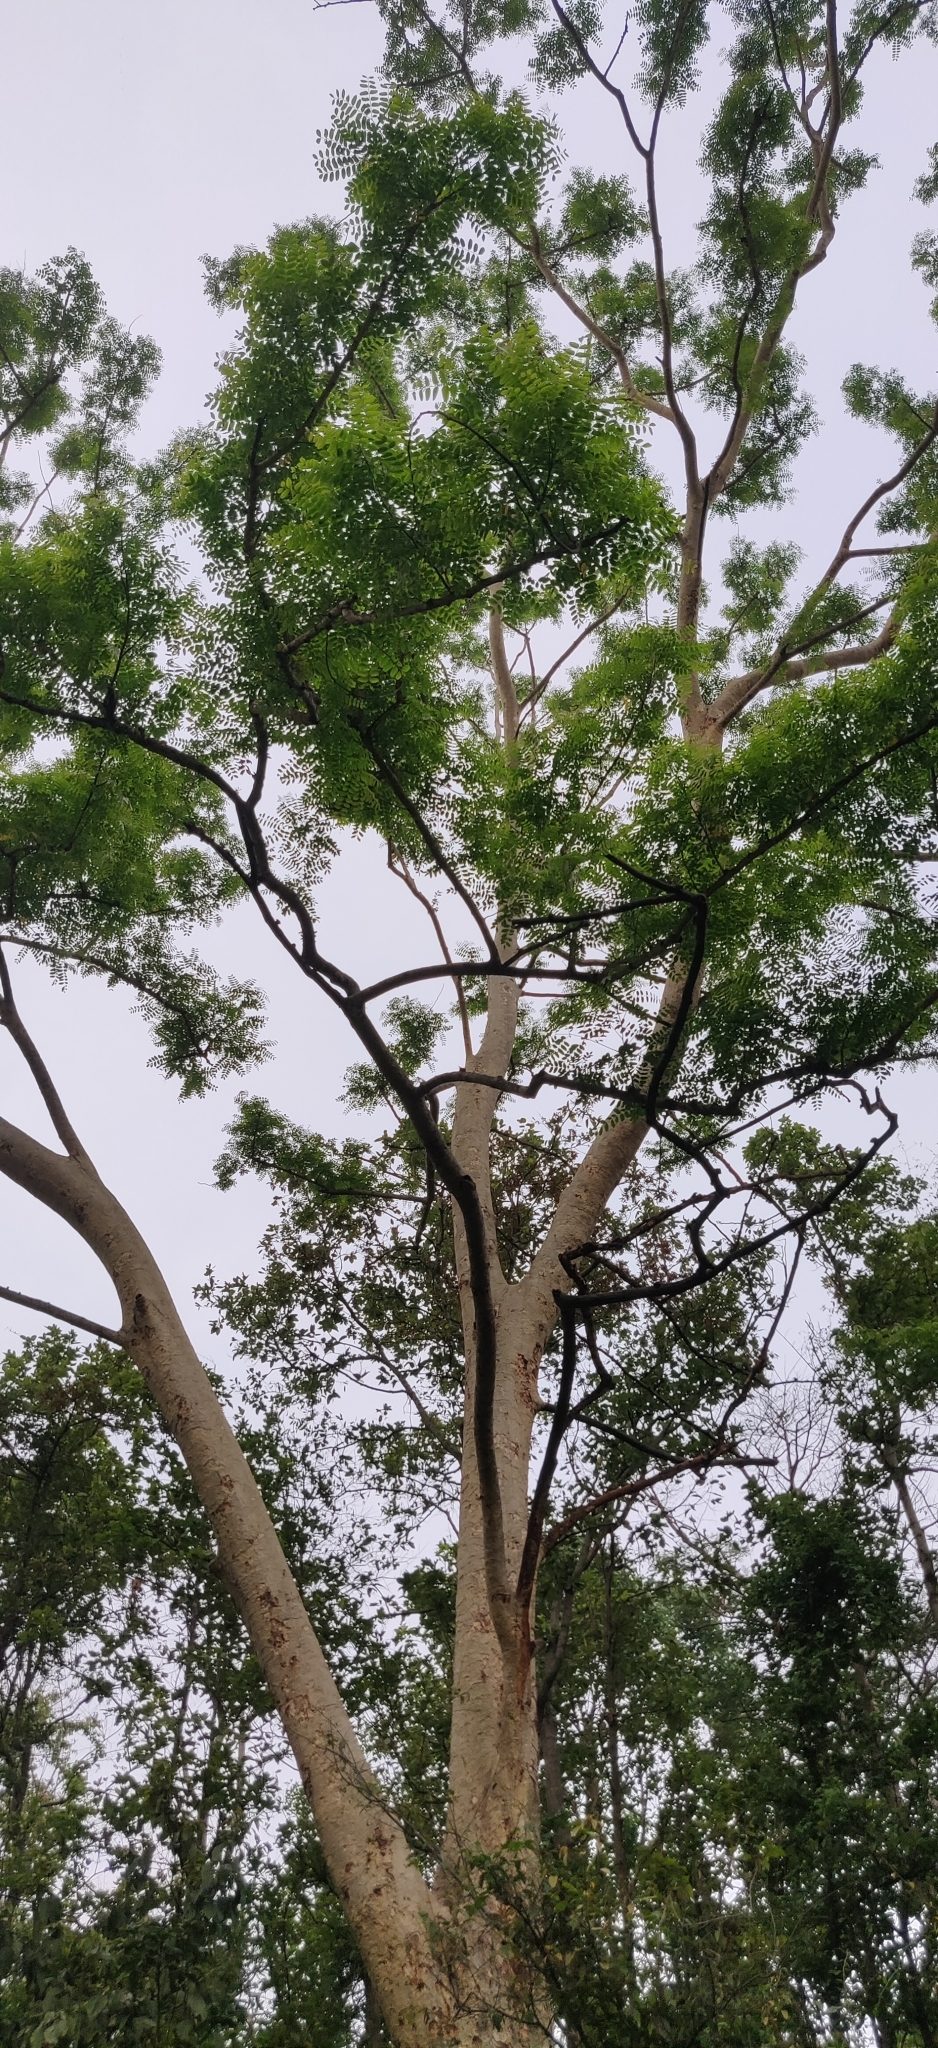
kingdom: Plantae
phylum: Tracheophyta
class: Magnoliopsida
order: Fabales
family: Fabaceae
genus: Albizia
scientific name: Albizia procera
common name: Tall albizia
